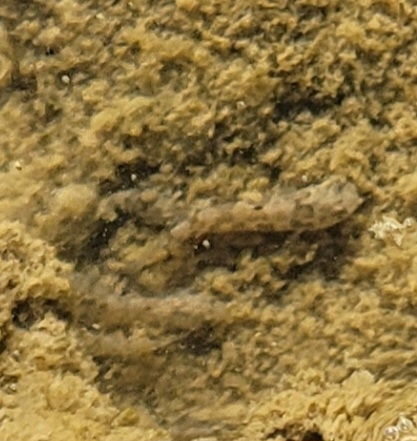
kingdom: Animalia
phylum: Chordata
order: Cyprinodontiformes
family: Cyprinodontidae
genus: Cyprinodon
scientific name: Cyprinodon salinus
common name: Cottonball marsh pupfish
